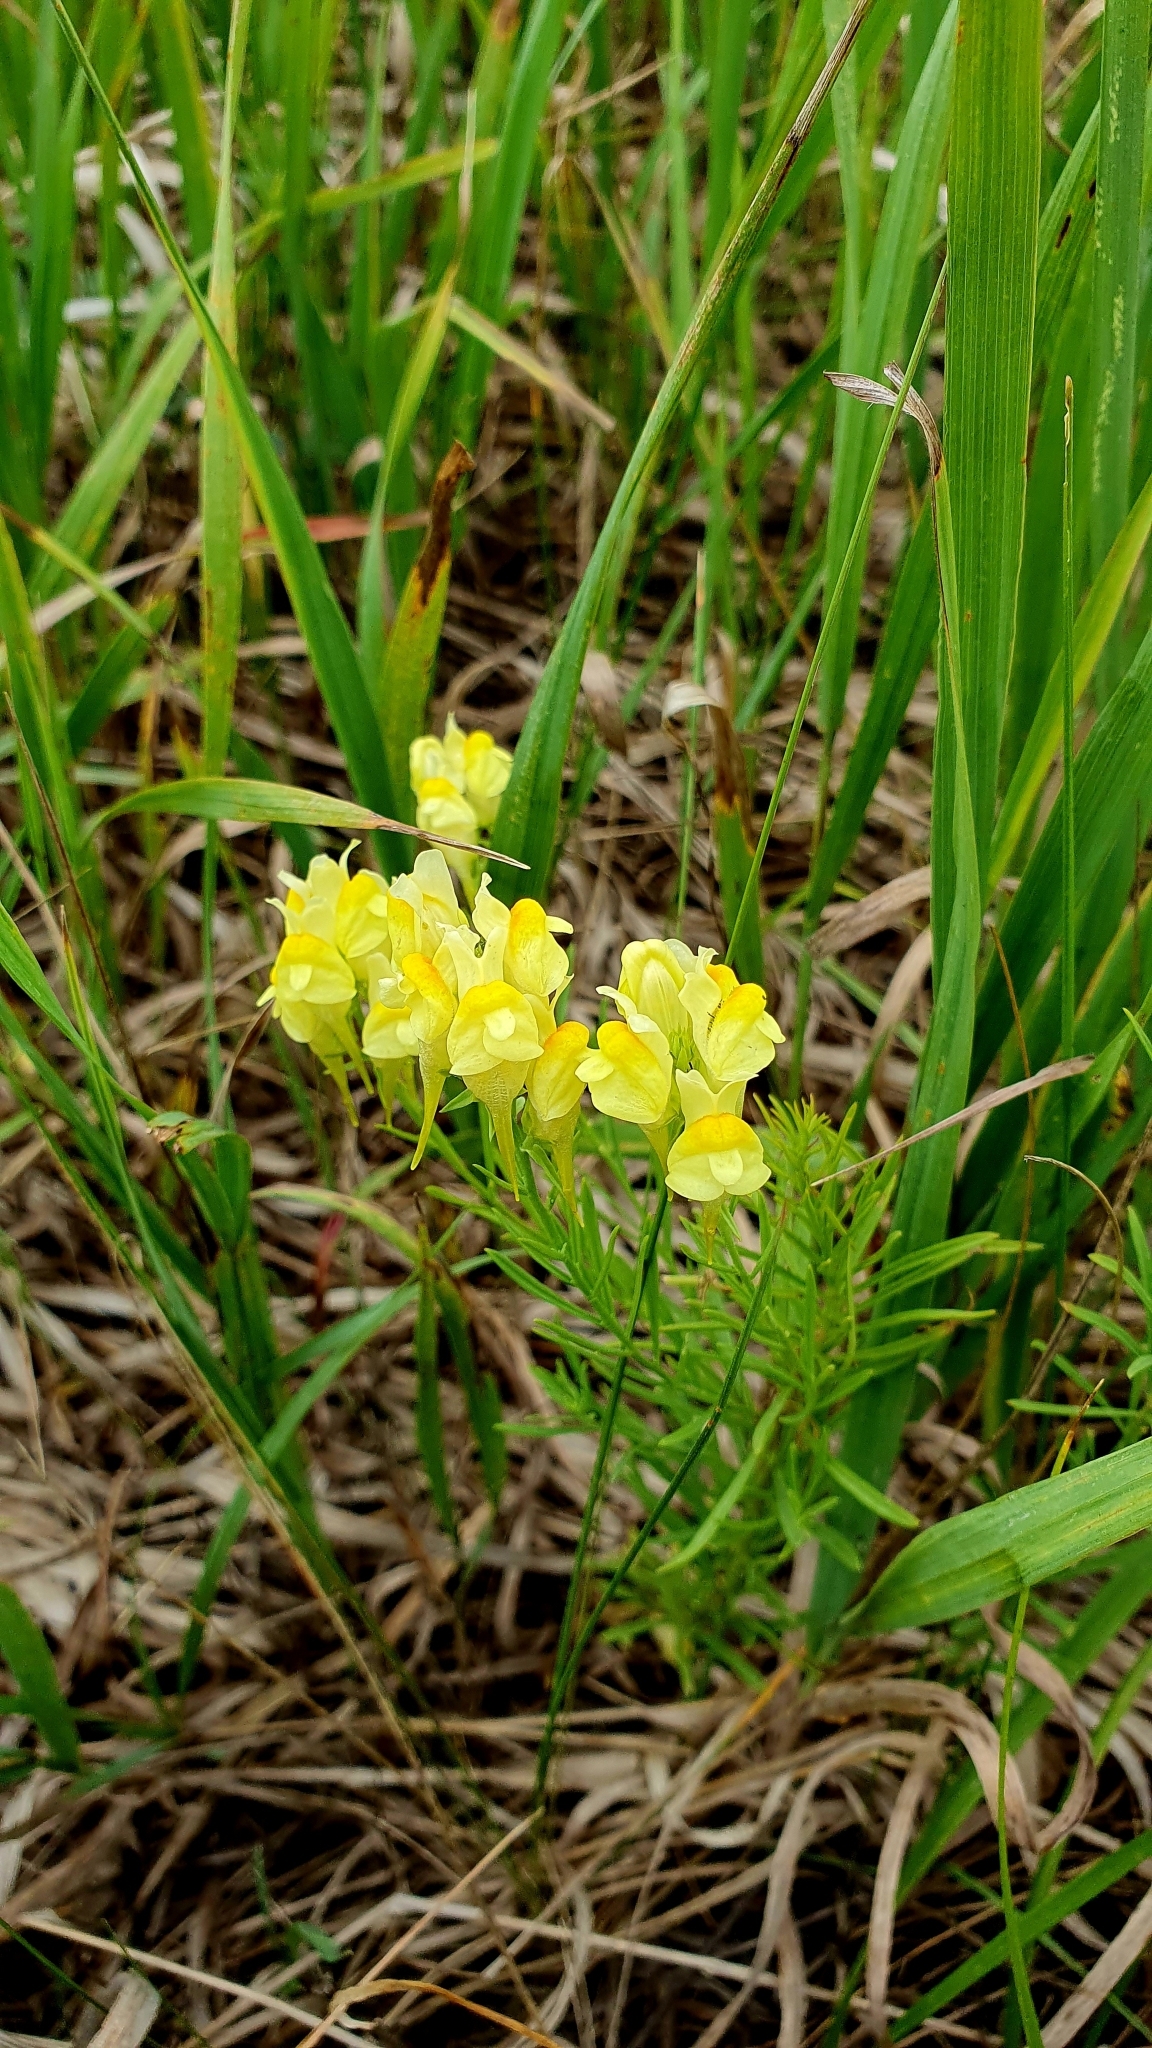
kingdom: Plantae
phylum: Tracheophyta
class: Magnoliopsida
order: Lamiales
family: Plantaginaceae
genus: Linaria
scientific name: Linaria vulgaris
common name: Butter and eggs
